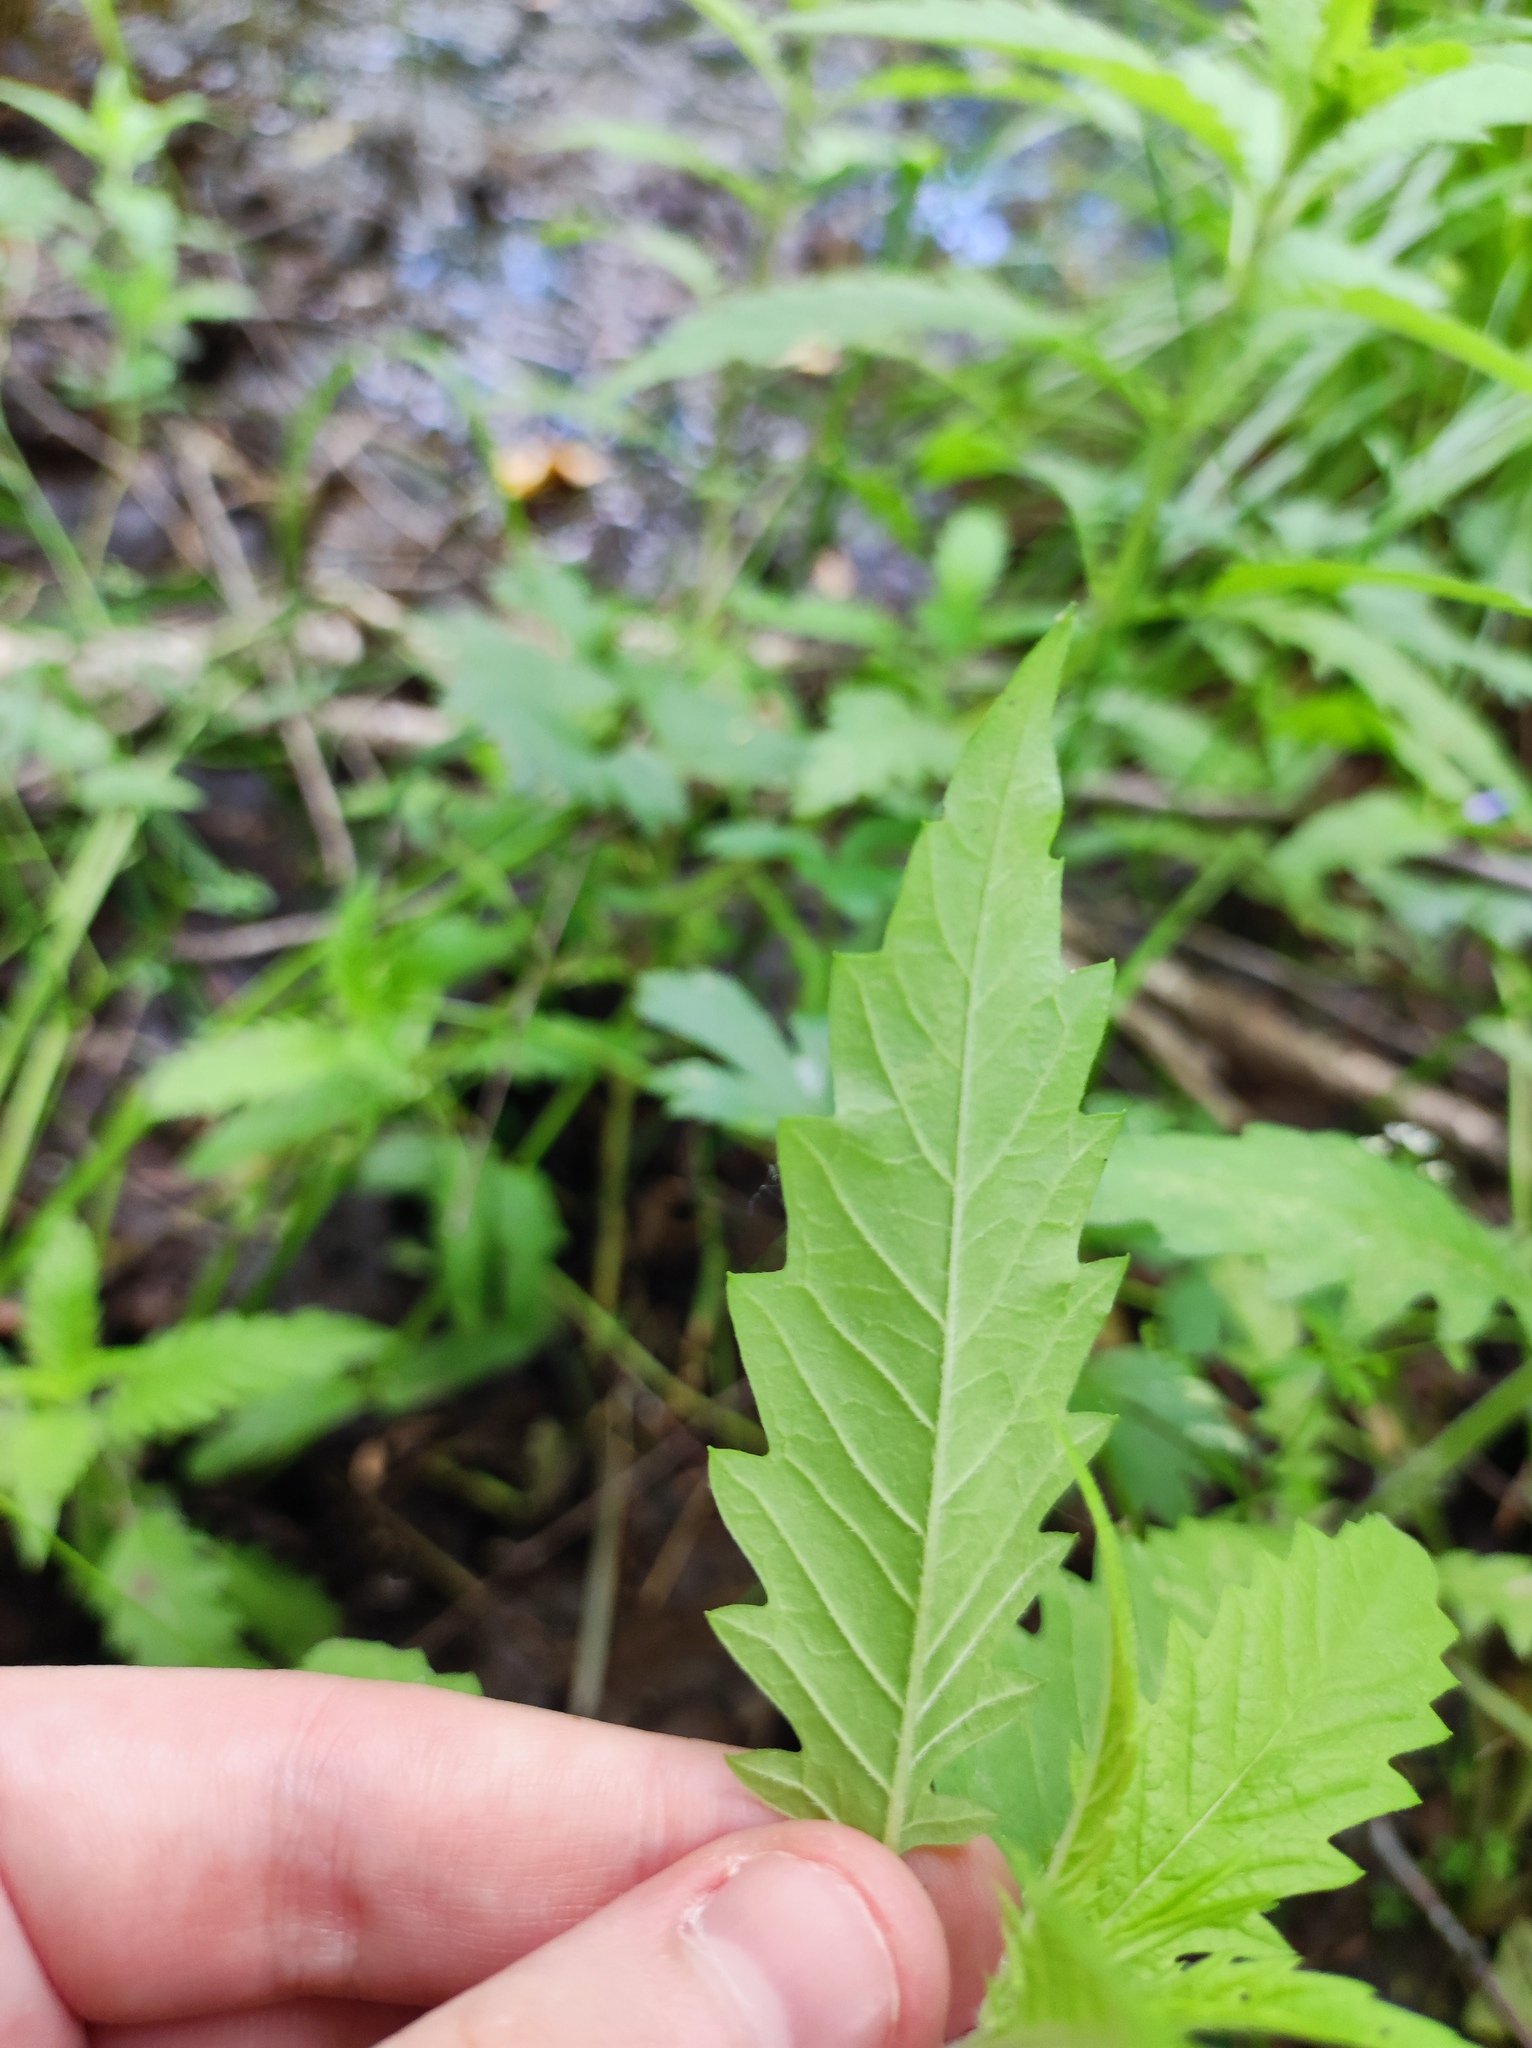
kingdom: Plantae
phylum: Tracheophyta
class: Magnoliopsida
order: Lamiales
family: Lamiaceae
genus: Lycopus
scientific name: Lycopus europaeus
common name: European bugleweed
